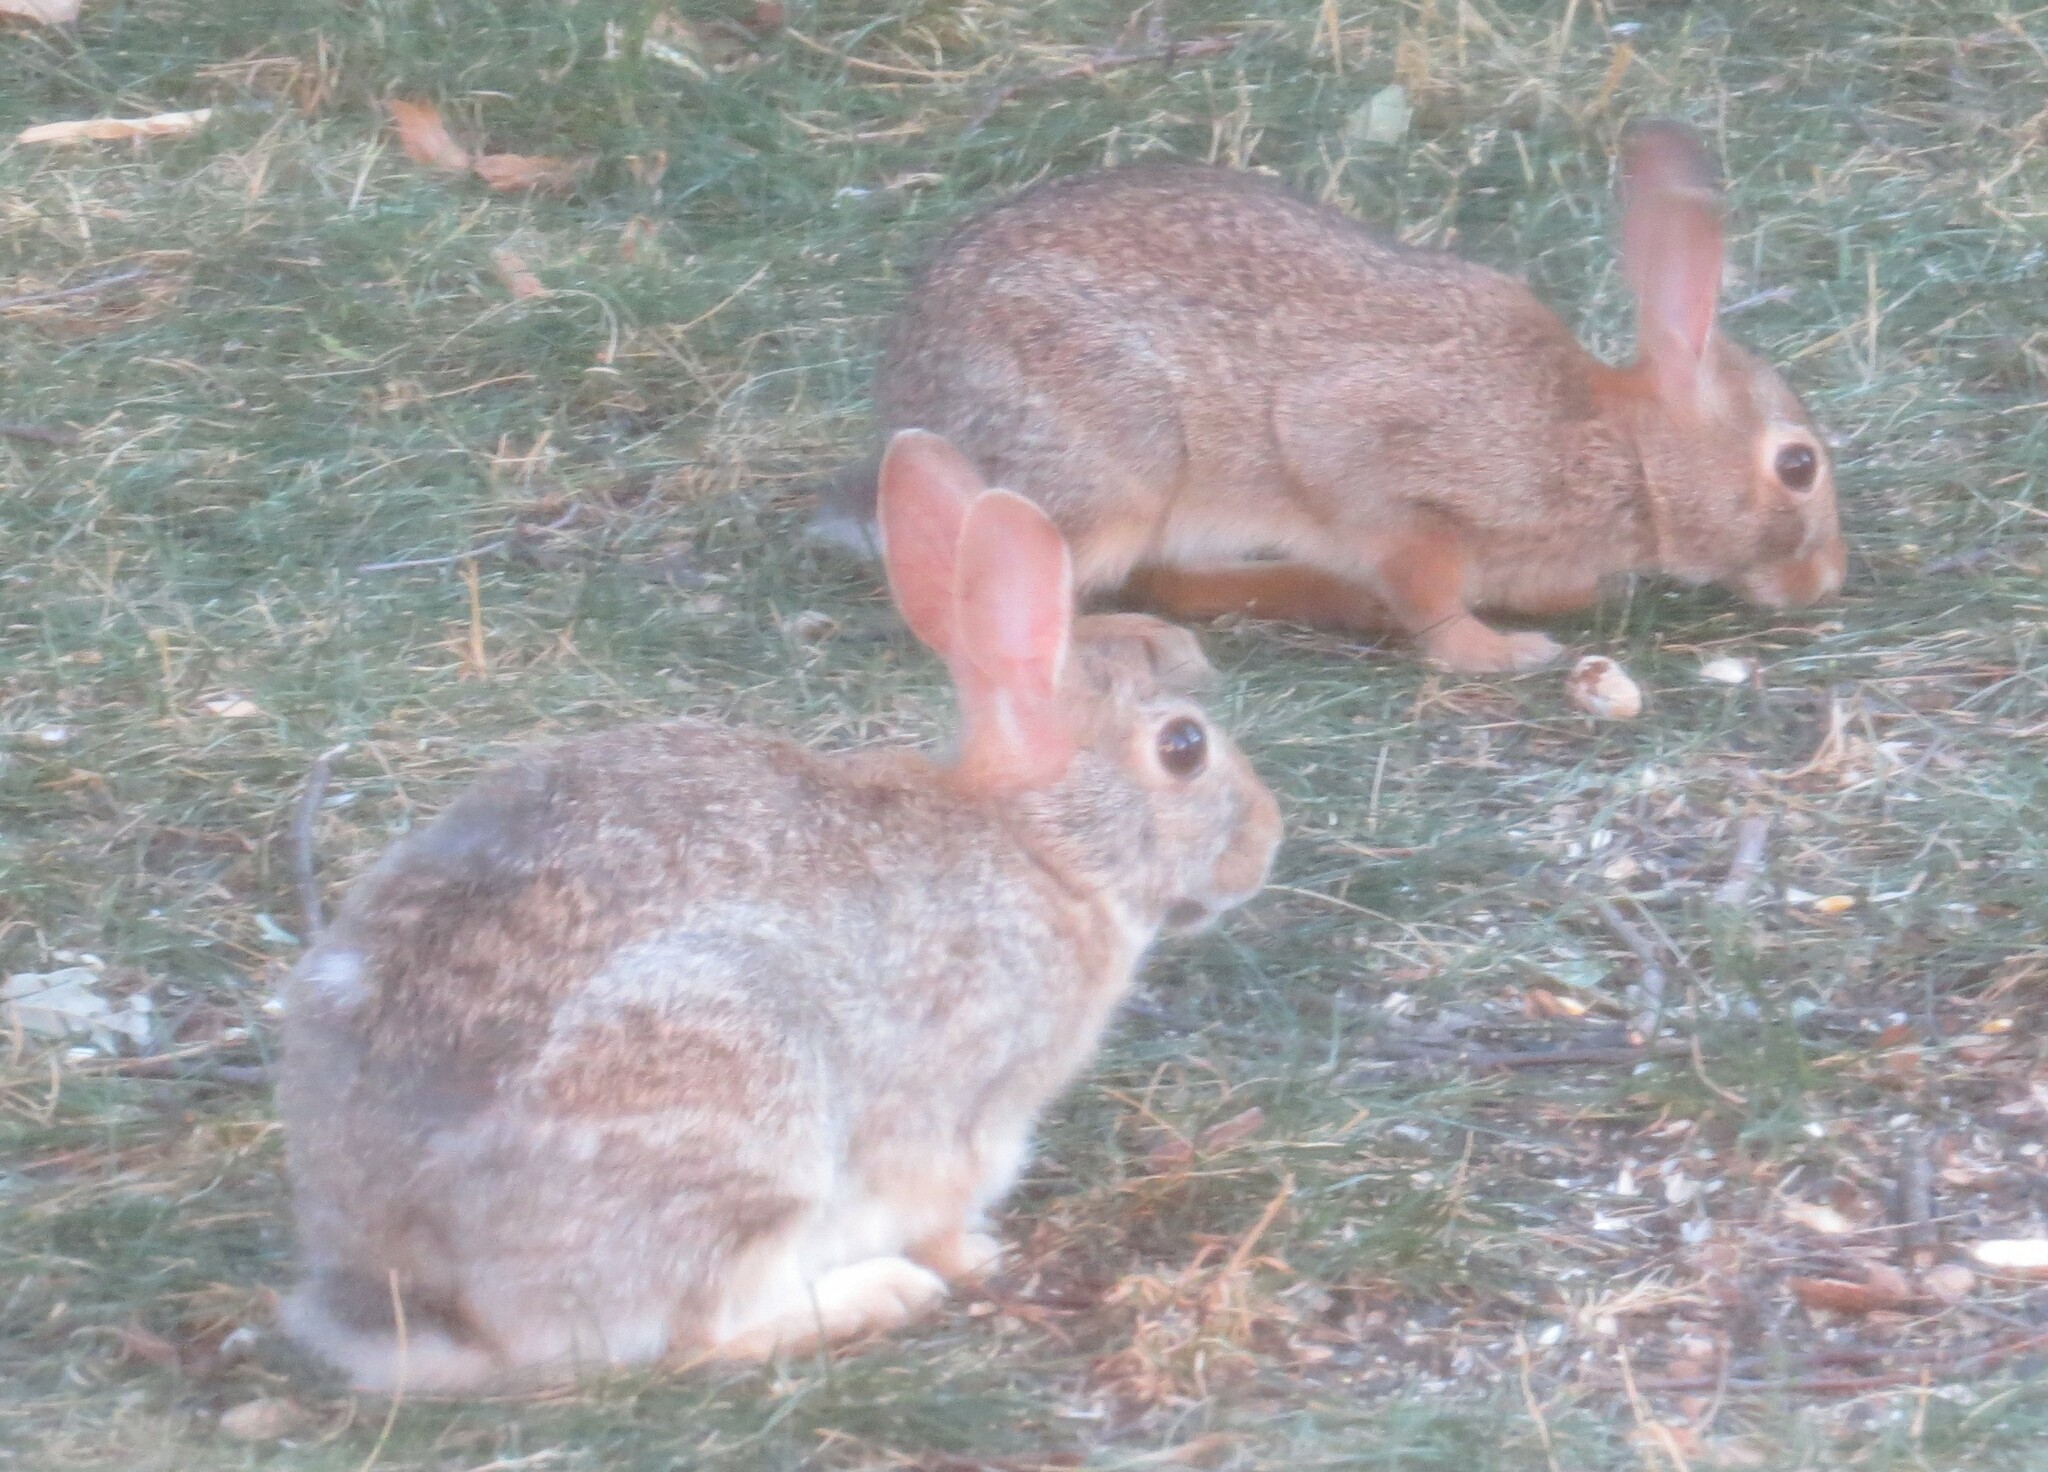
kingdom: Animalia
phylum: Chordata
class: Mammalia
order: Lagomorpha
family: Leporidae
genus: Sylvilagus
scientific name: Sylvilagus floridanus
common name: Eastern cottontail
